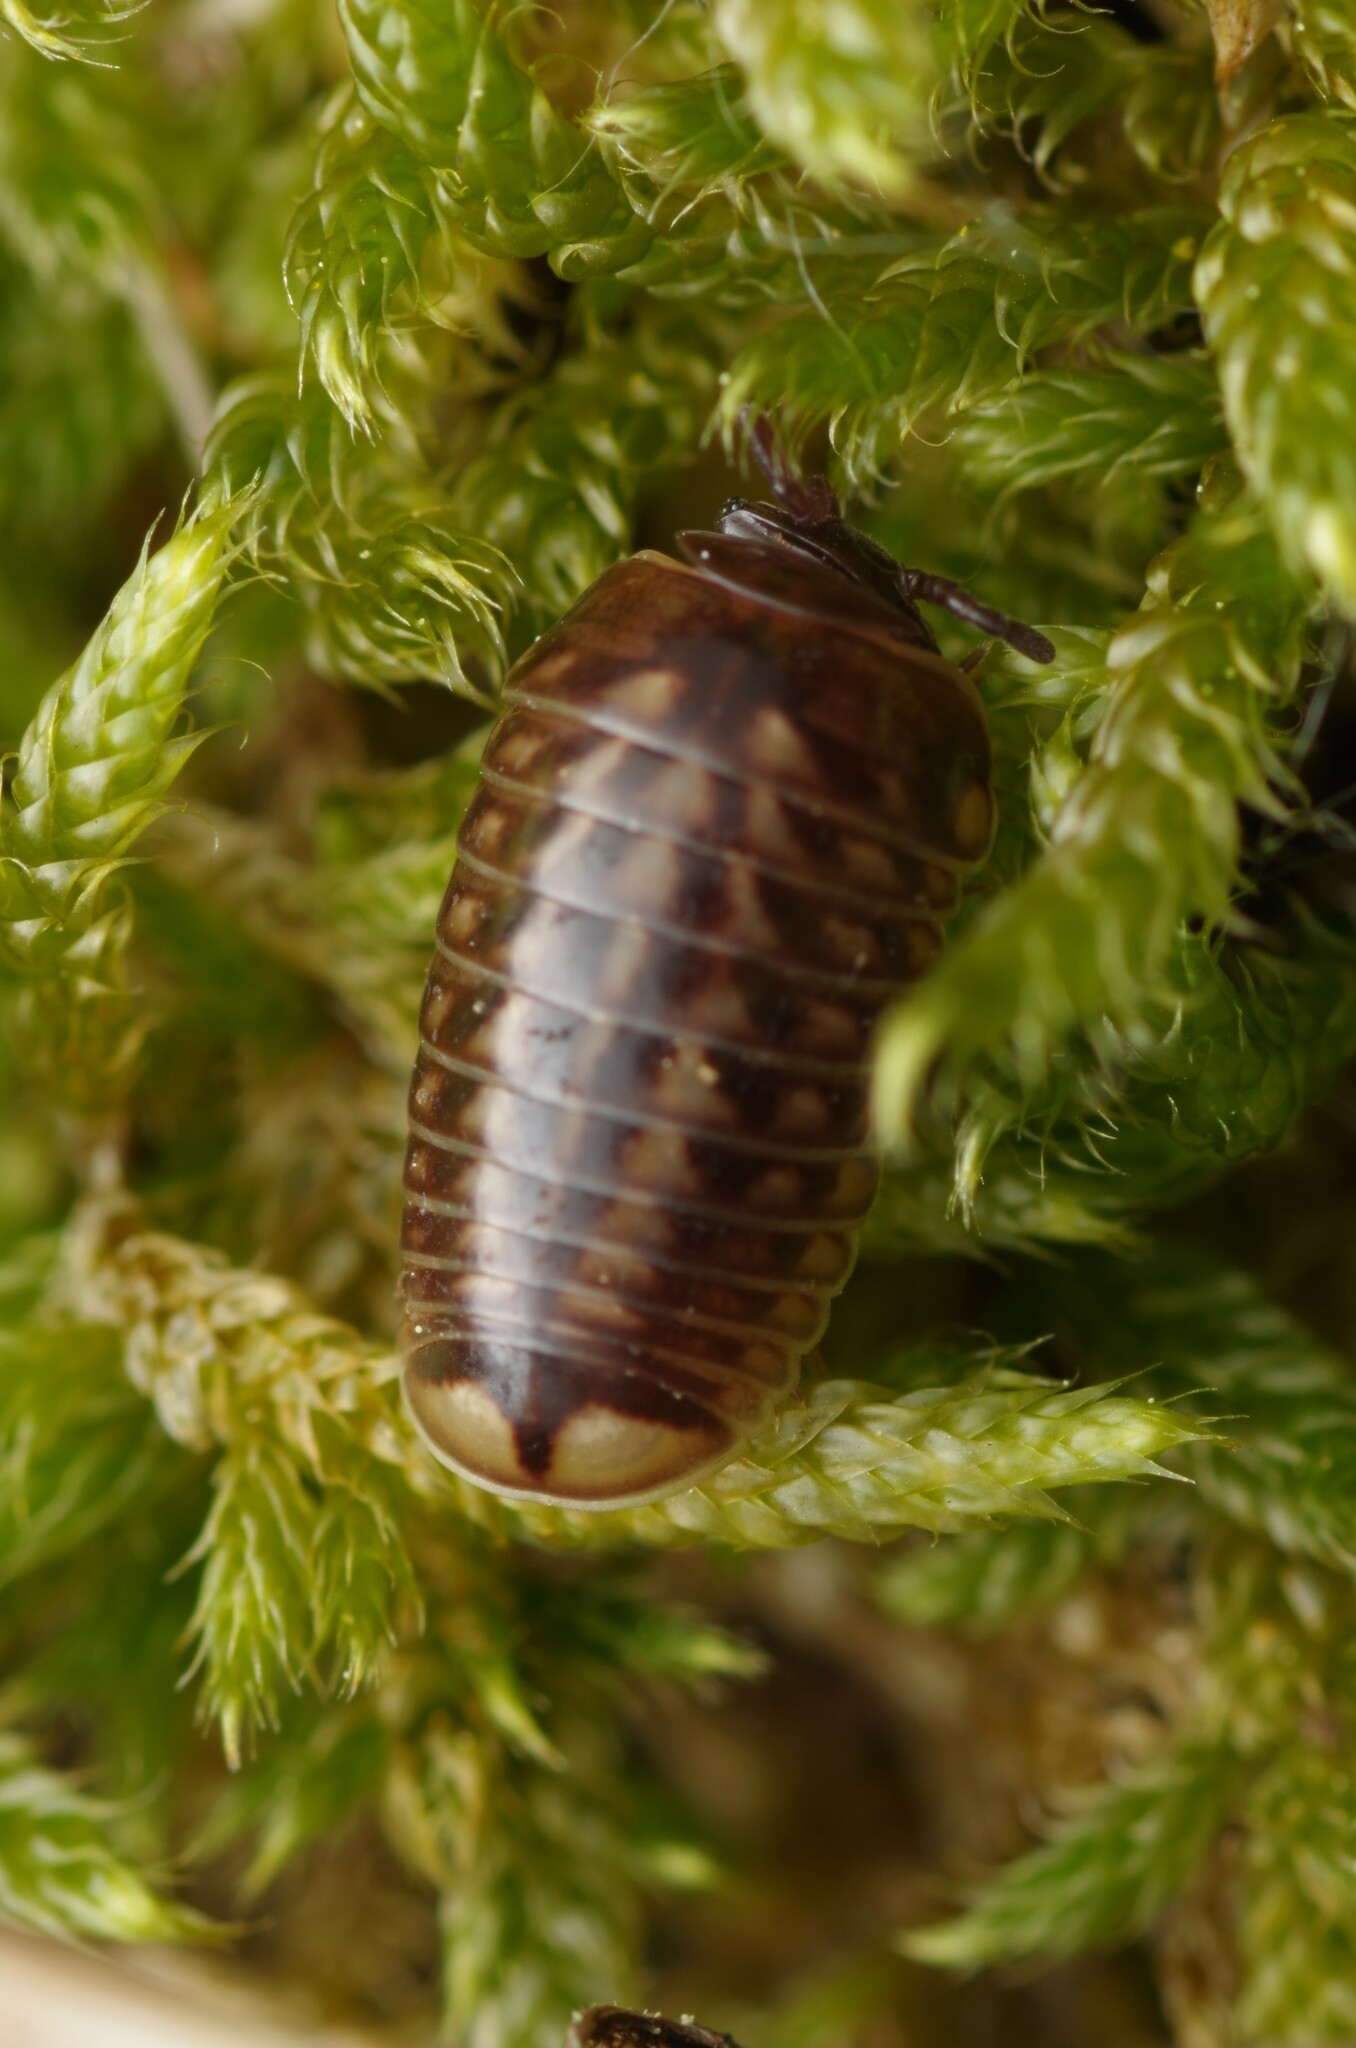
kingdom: Animalia
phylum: Arthropoda
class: Diplopoda
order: Glomerida
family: Glomeridae
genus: Glomeris
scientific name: Glomeris intermedia
